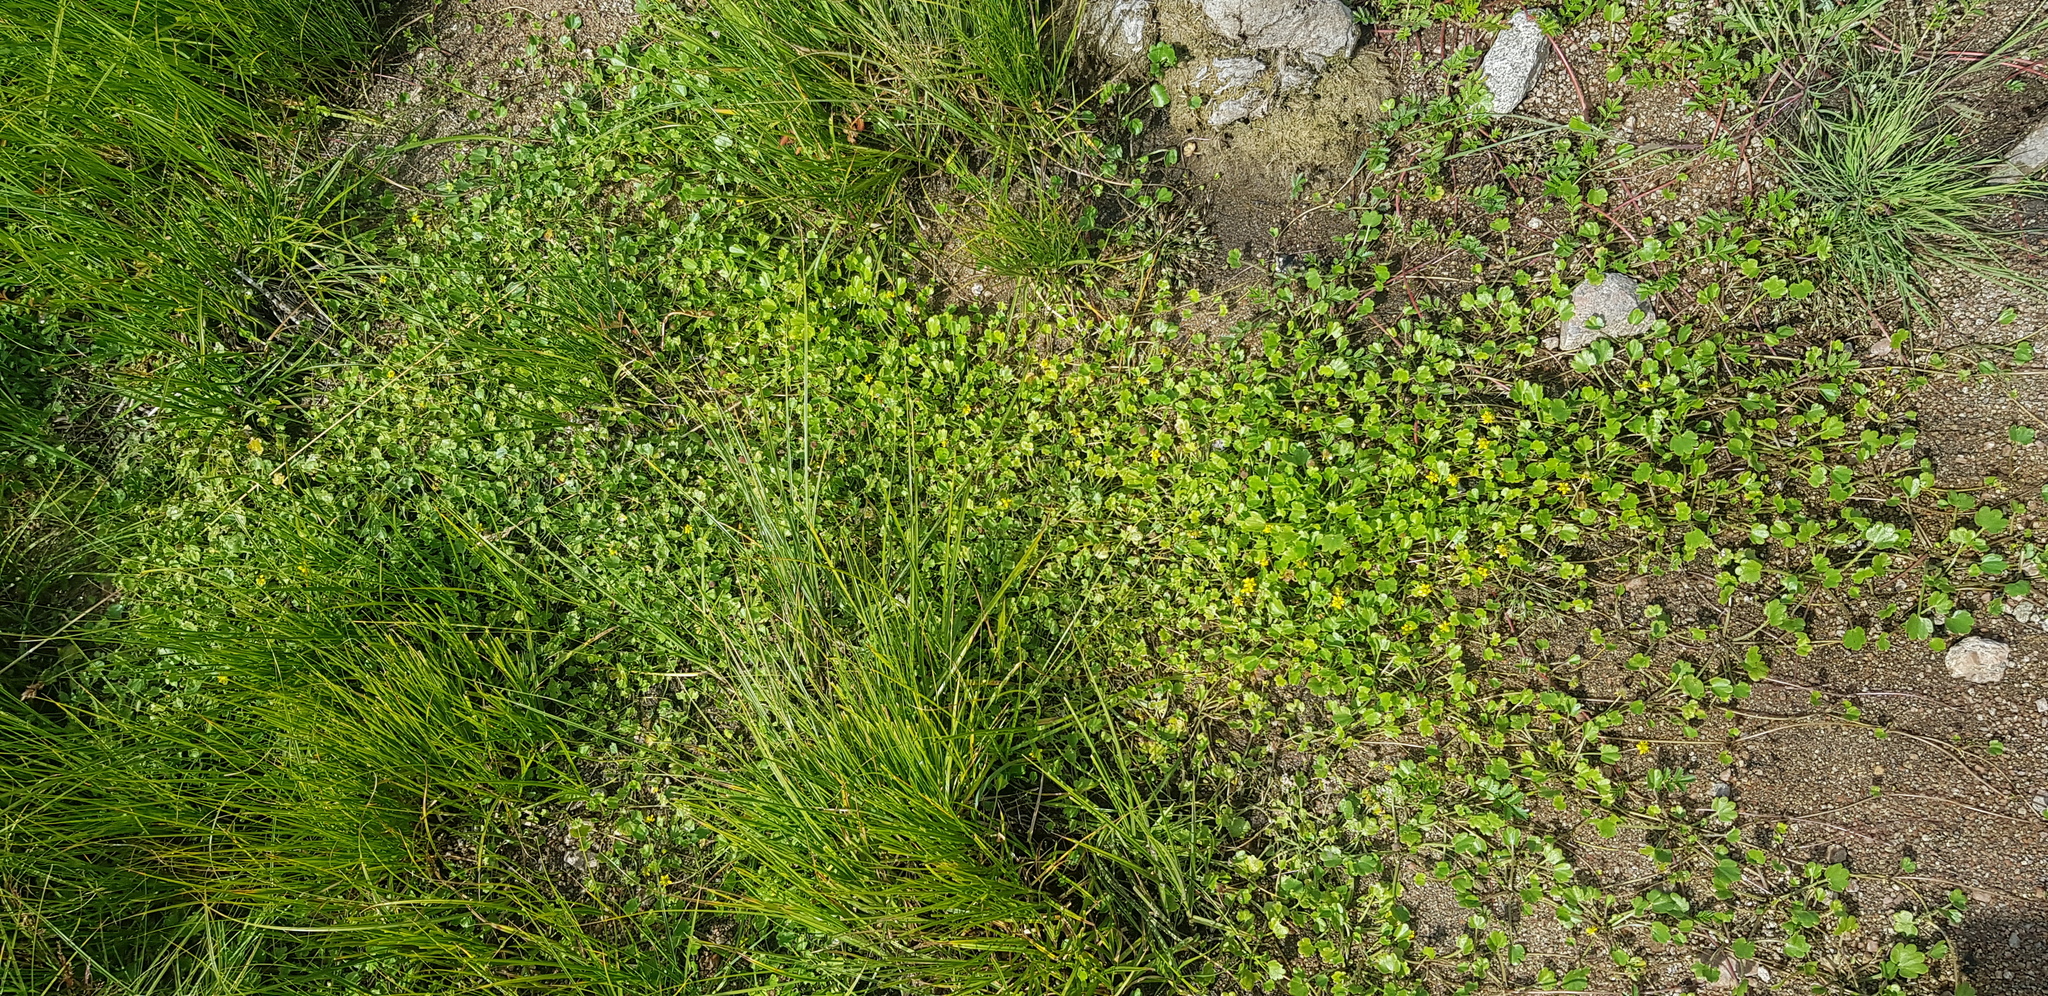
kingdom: Plantae
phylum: Tracheophyta
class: Magnoliopsida
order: Ranunculales
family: Ranunculaceae
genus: Halerpestes
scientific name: Halerpestes sarmentosus
